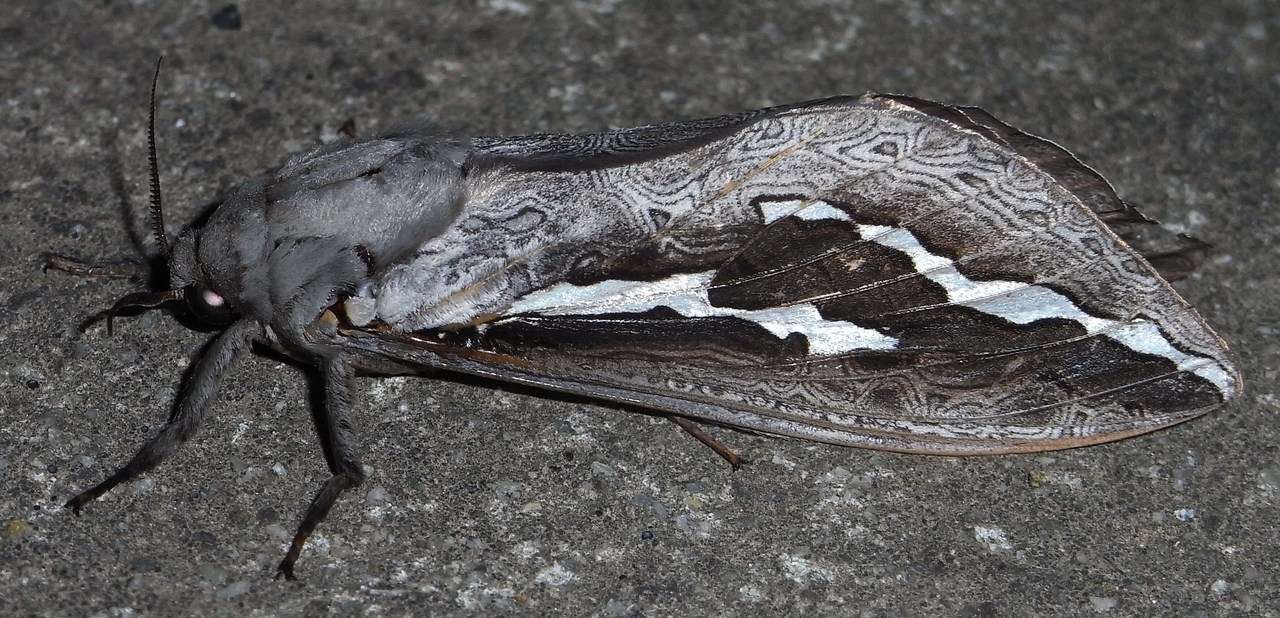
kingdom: Animalia
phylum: Arthropoda
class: Insecta
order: Lepidoptera
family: Hepialidae
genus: Abantiades
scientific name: Abantiades labyrinthicus
